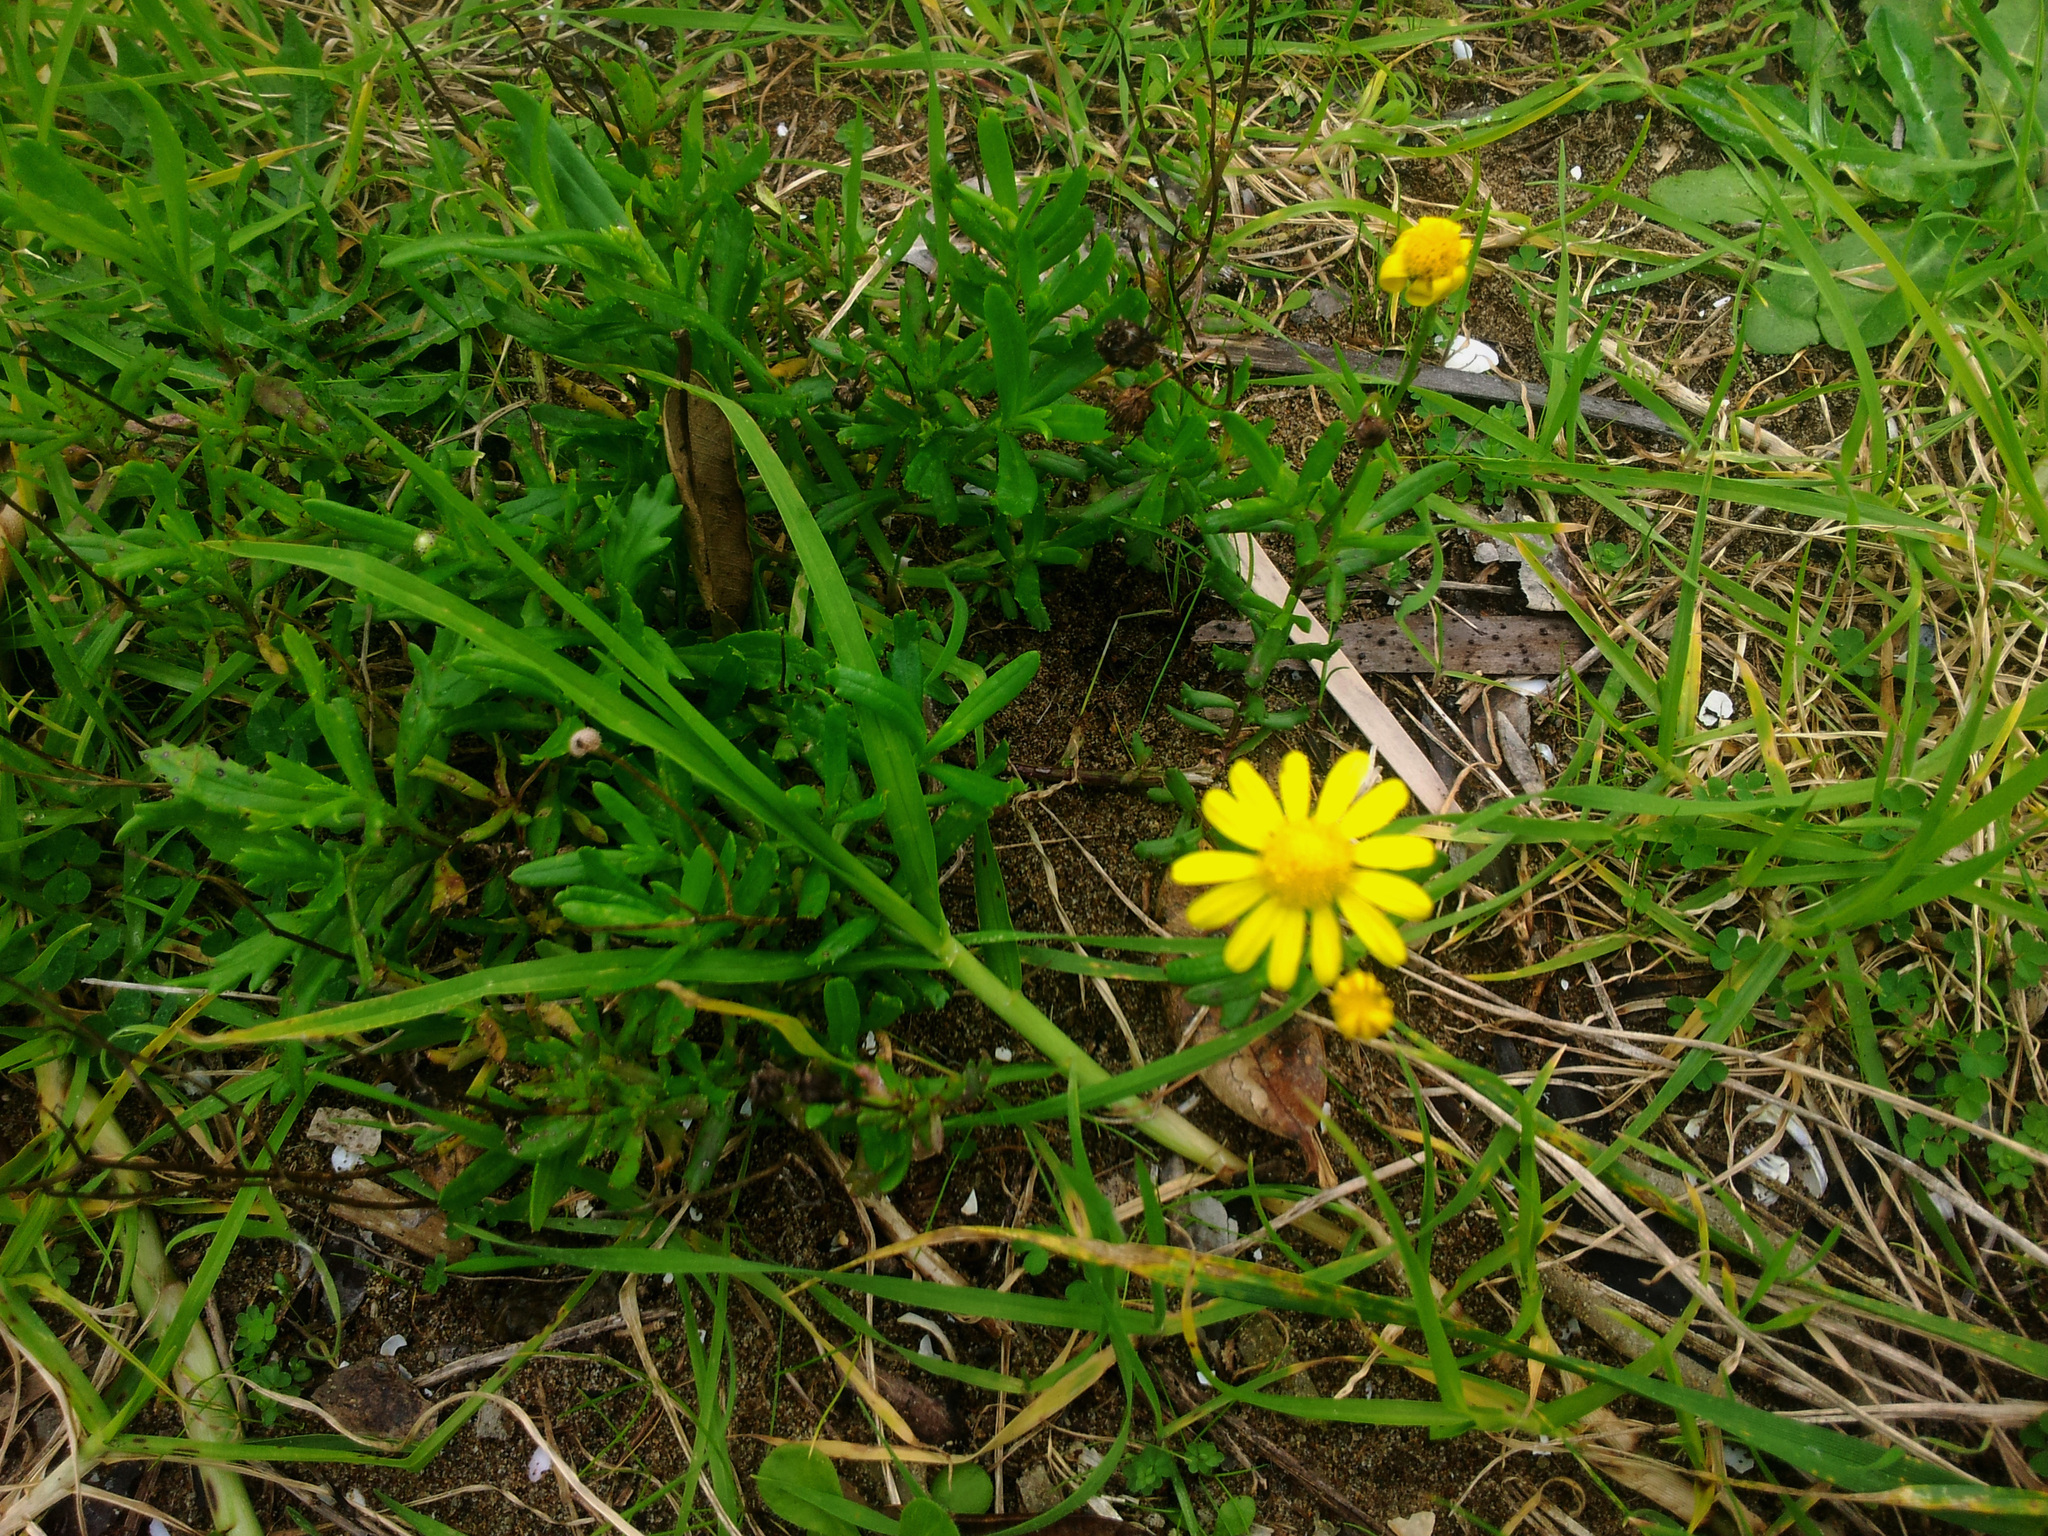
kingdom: Plantae
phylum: Tracheophyta
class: Magnoliopsida
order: Asterales
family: Asteraceae
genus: Senecio
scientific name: Senecio skirrhodon
